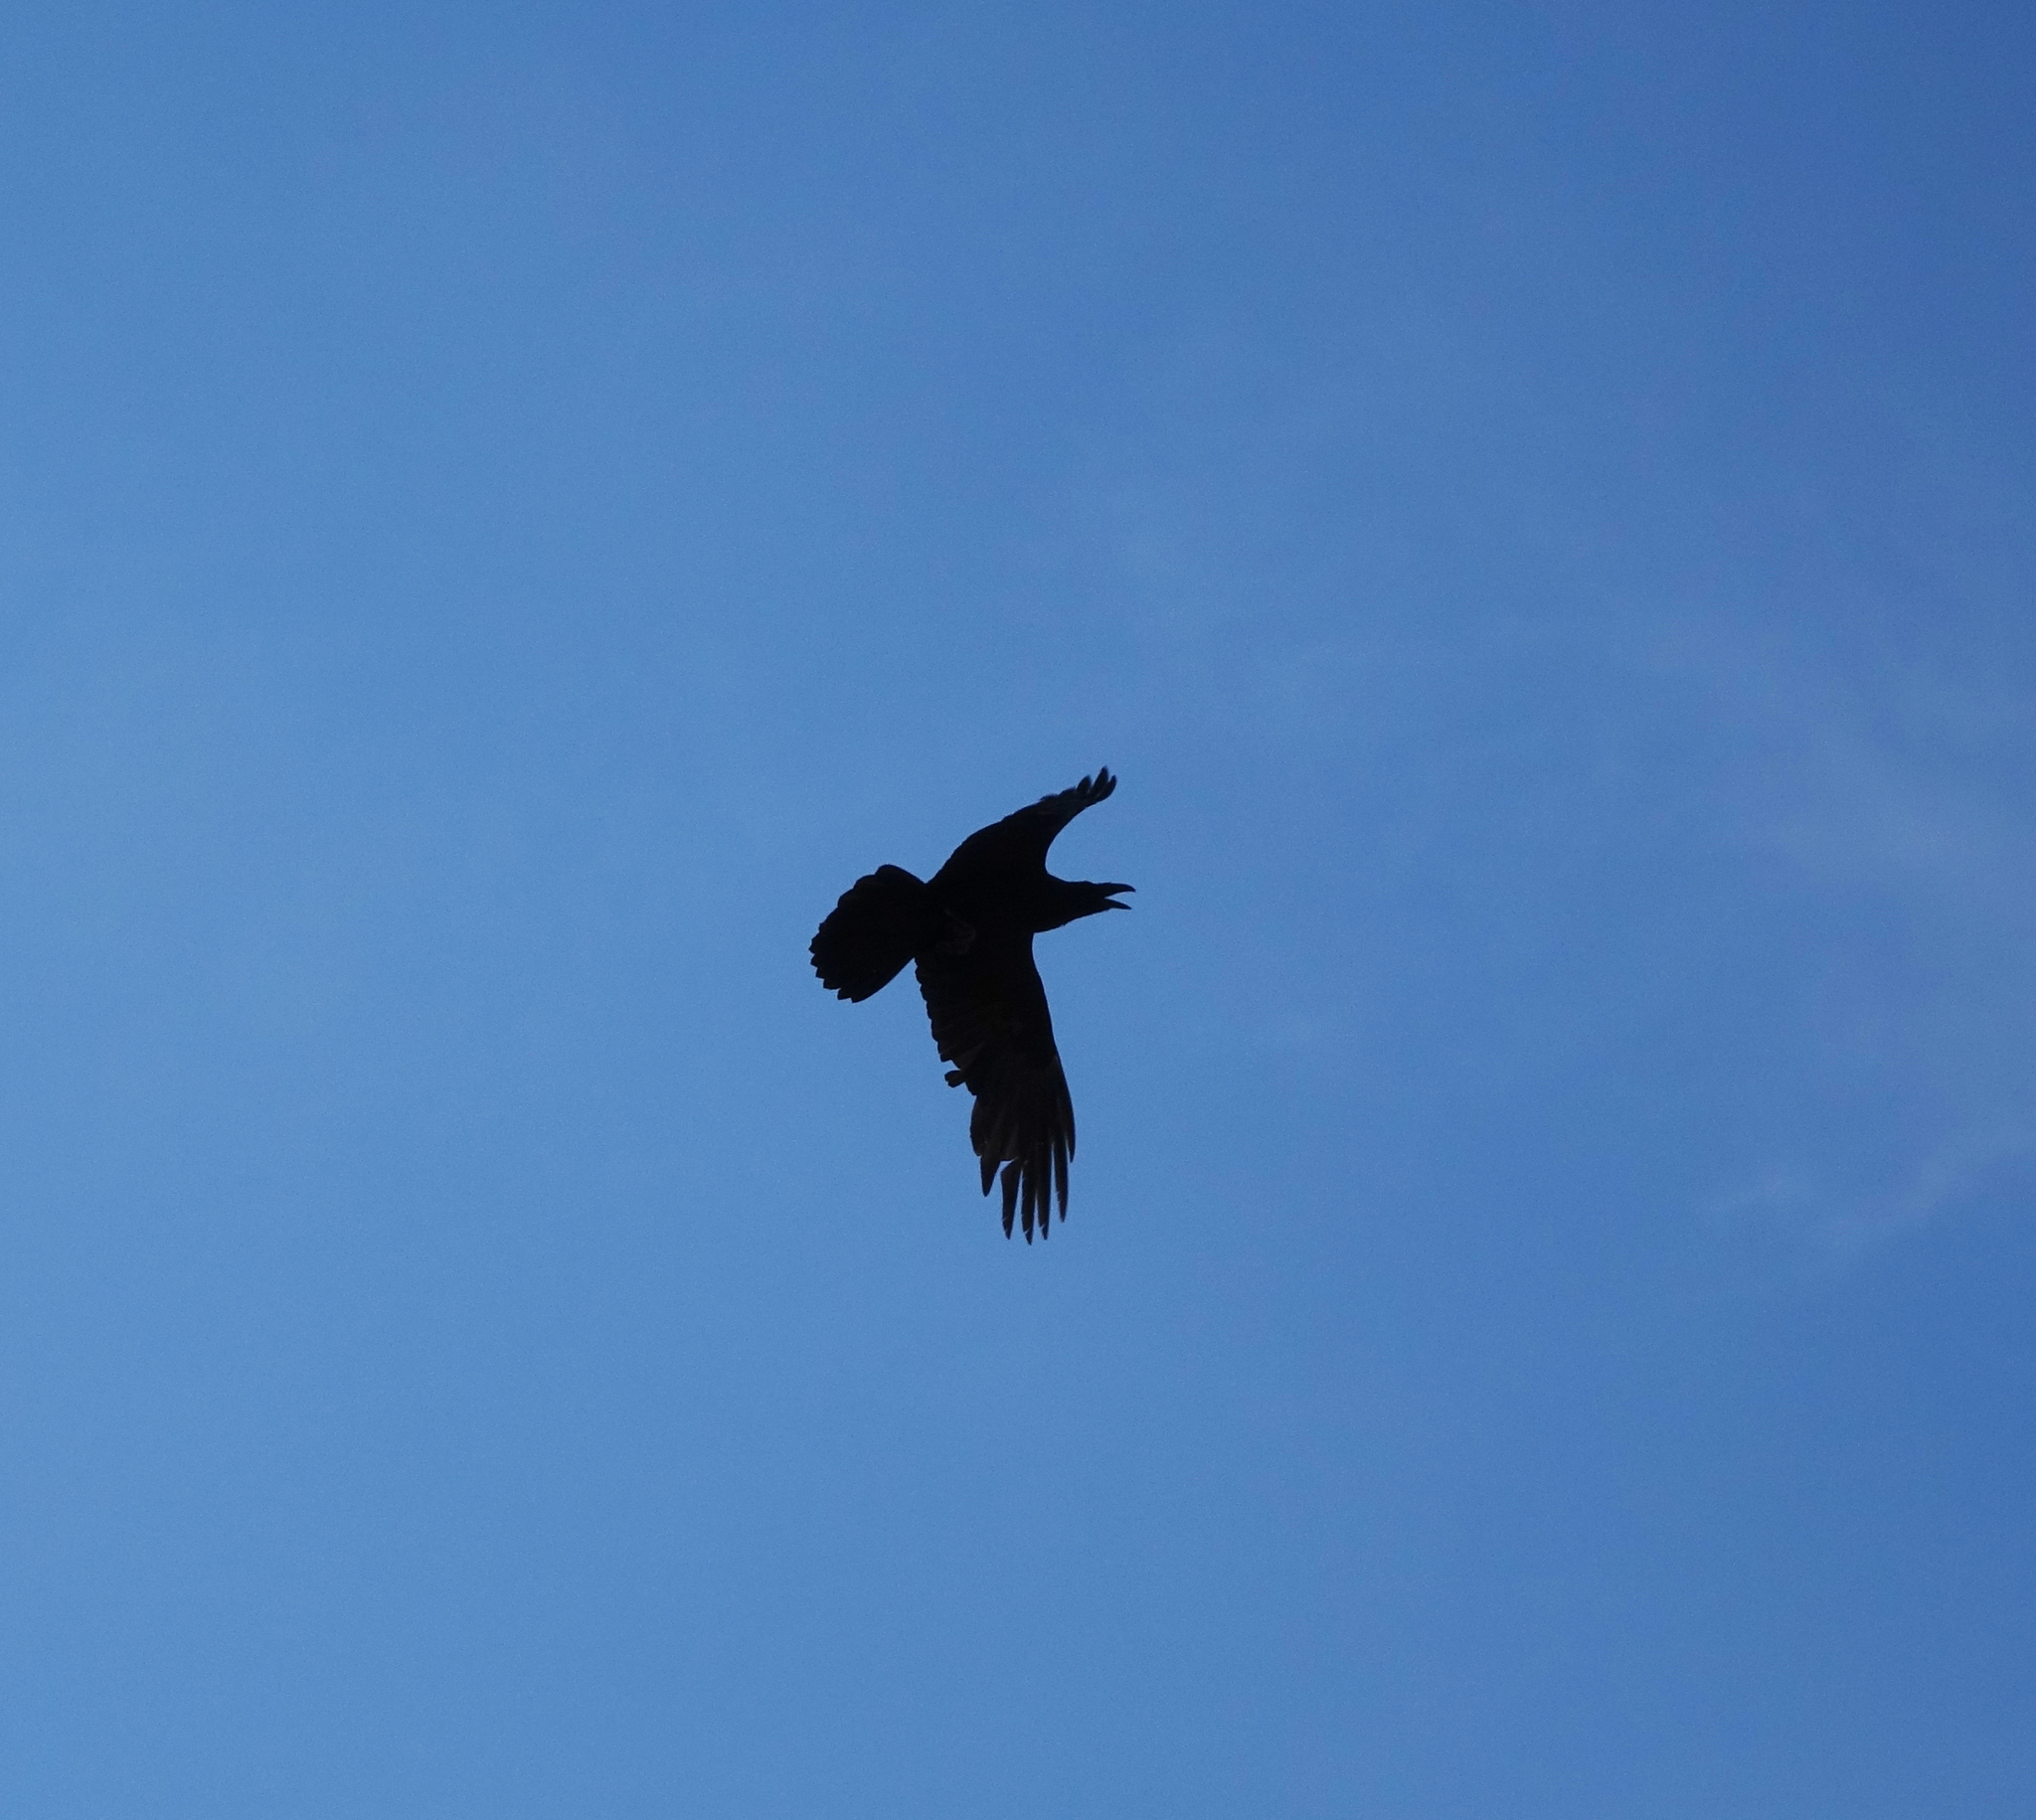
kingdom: Animalia
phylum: Chordata
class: Aves
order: Passeriformes
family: Corvidae
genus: Corvus
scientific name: Corvus corax
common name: Common raven
